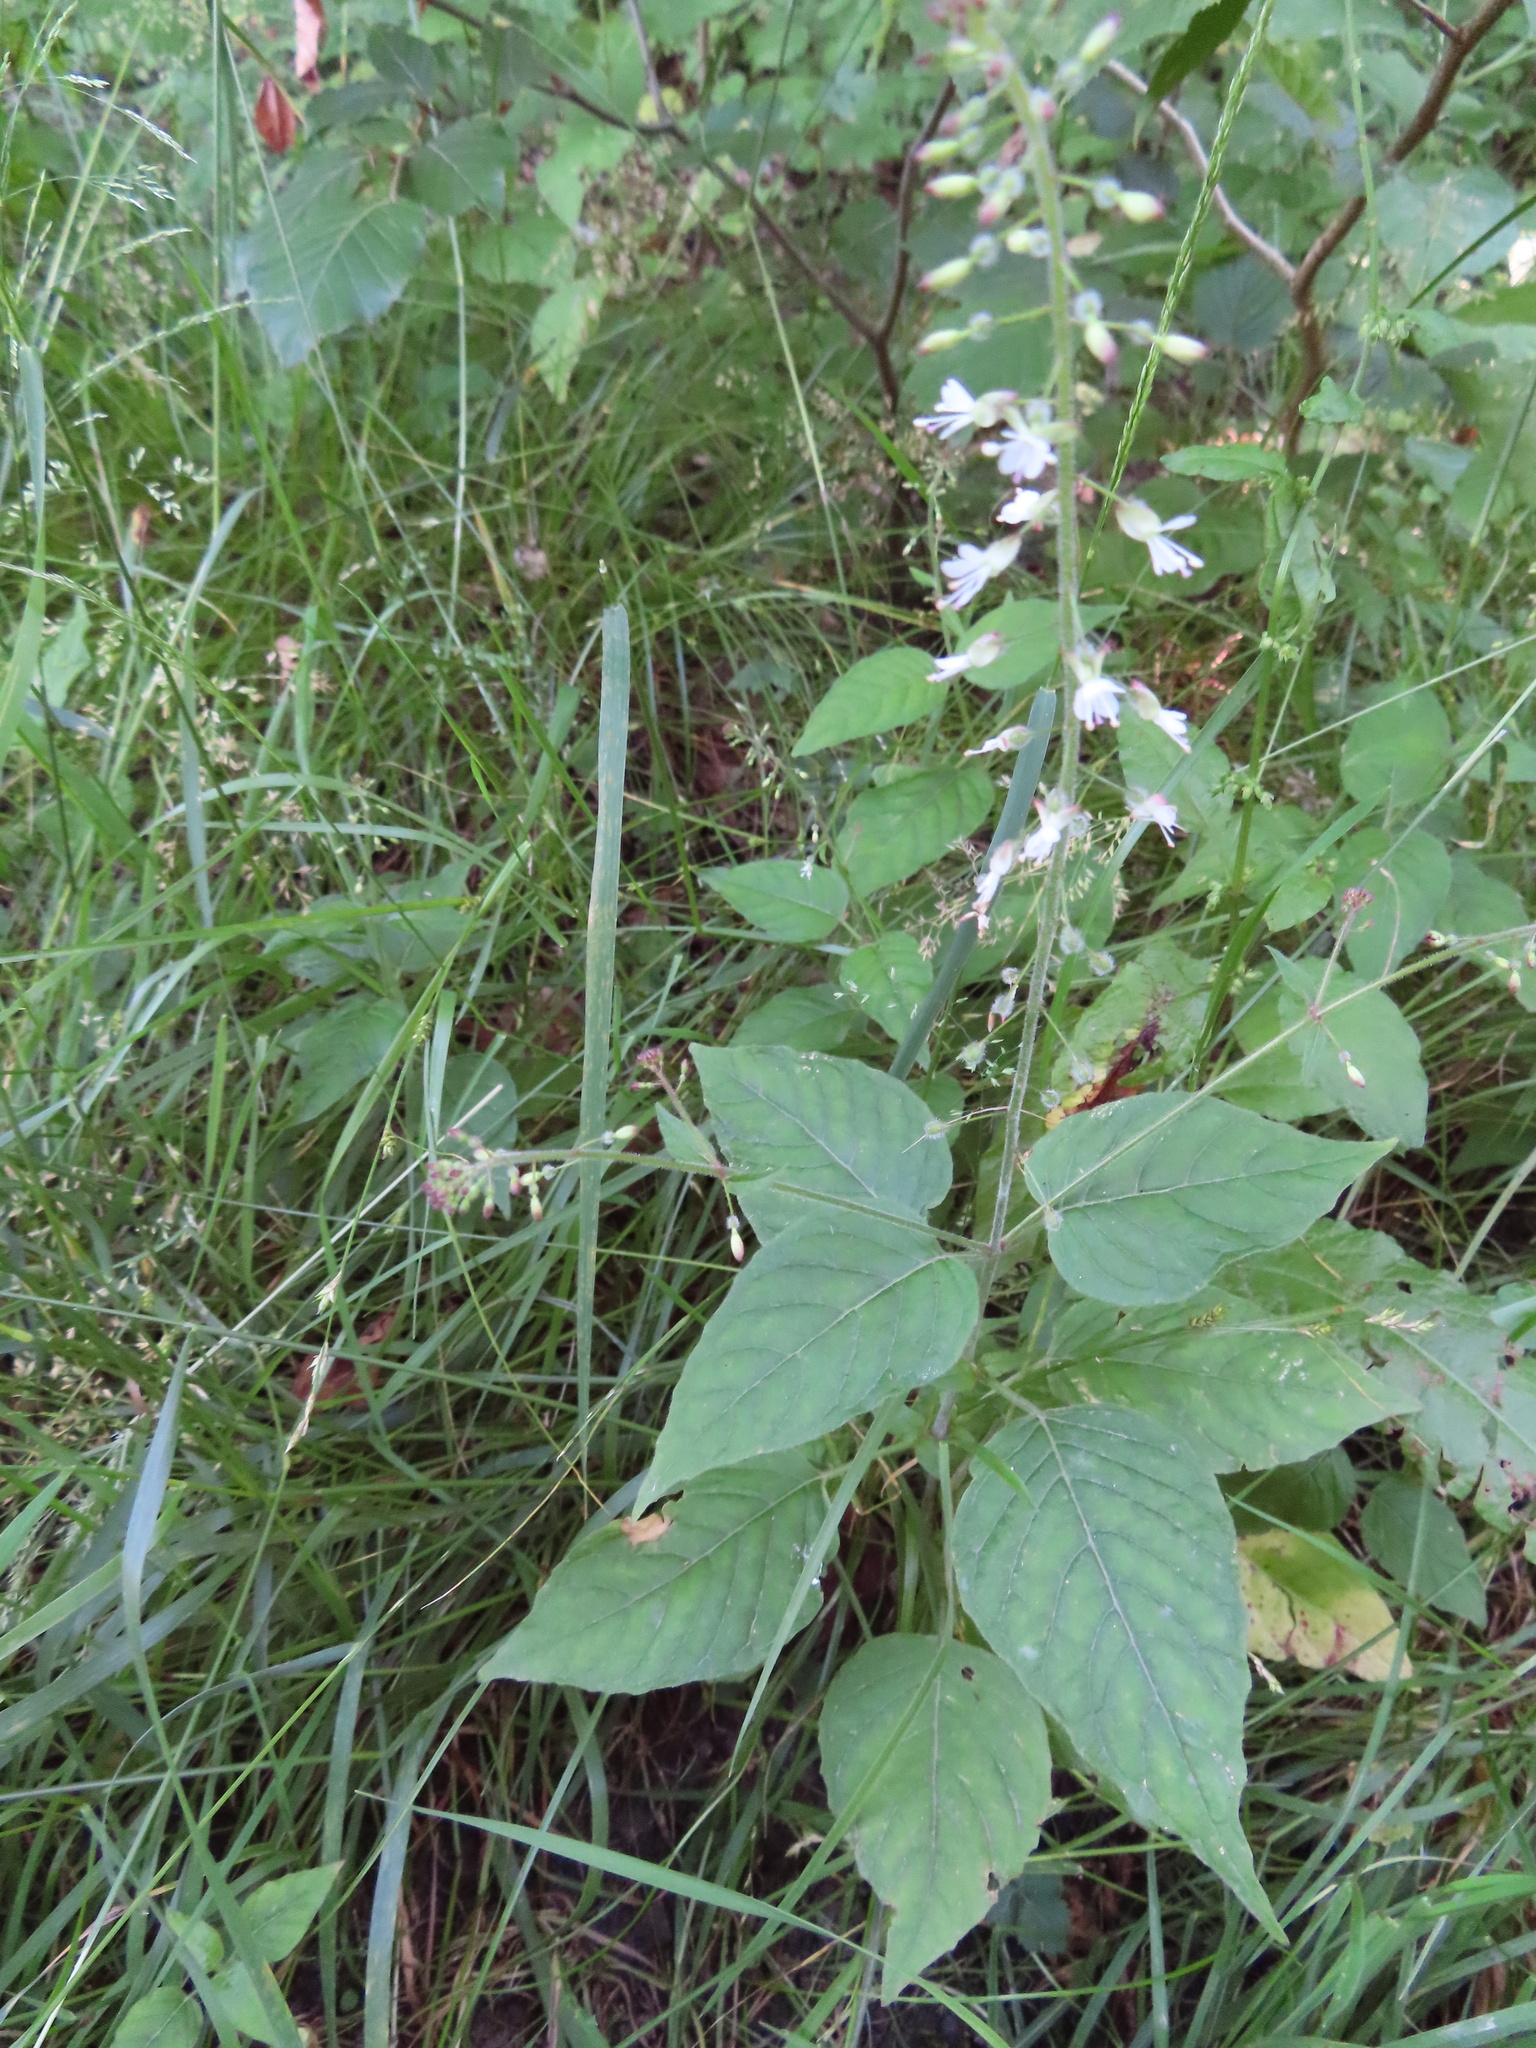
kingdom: Plantae
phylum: Tracheophyta
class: Magnoliopsida
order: Myrtales
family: Onagraceae
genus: Circaea
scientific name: Circaea lutetiana
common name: Enchanter's-nightshade
